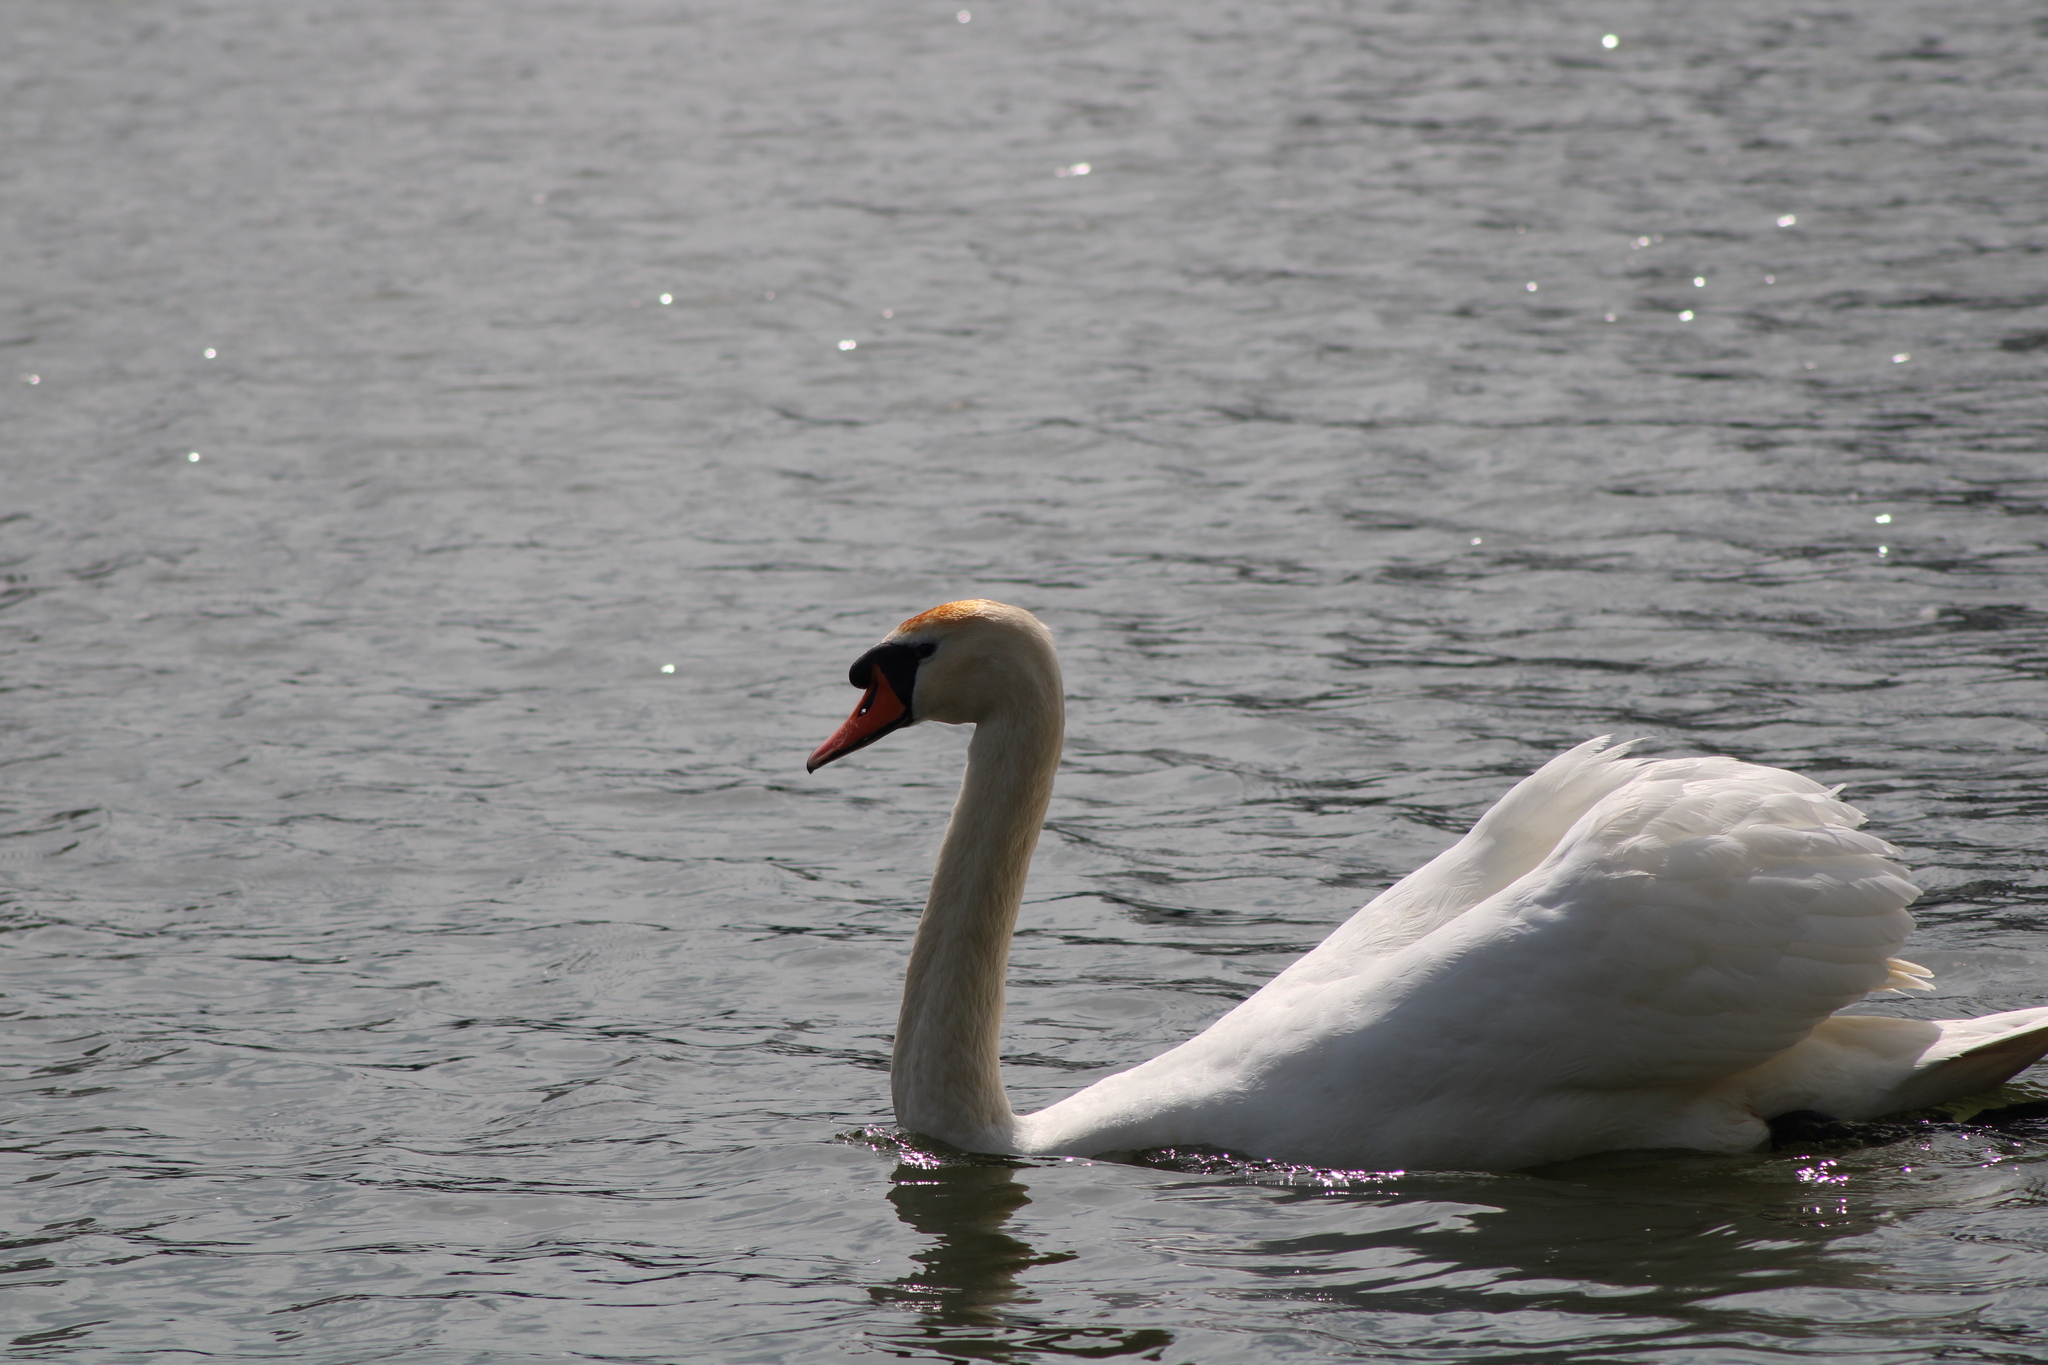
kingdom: Animalia
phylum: Chordata
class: Aves
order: Anseriformes
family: Anatidae
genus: Cygnus
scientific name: Cygnus olor
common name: Mute swan
